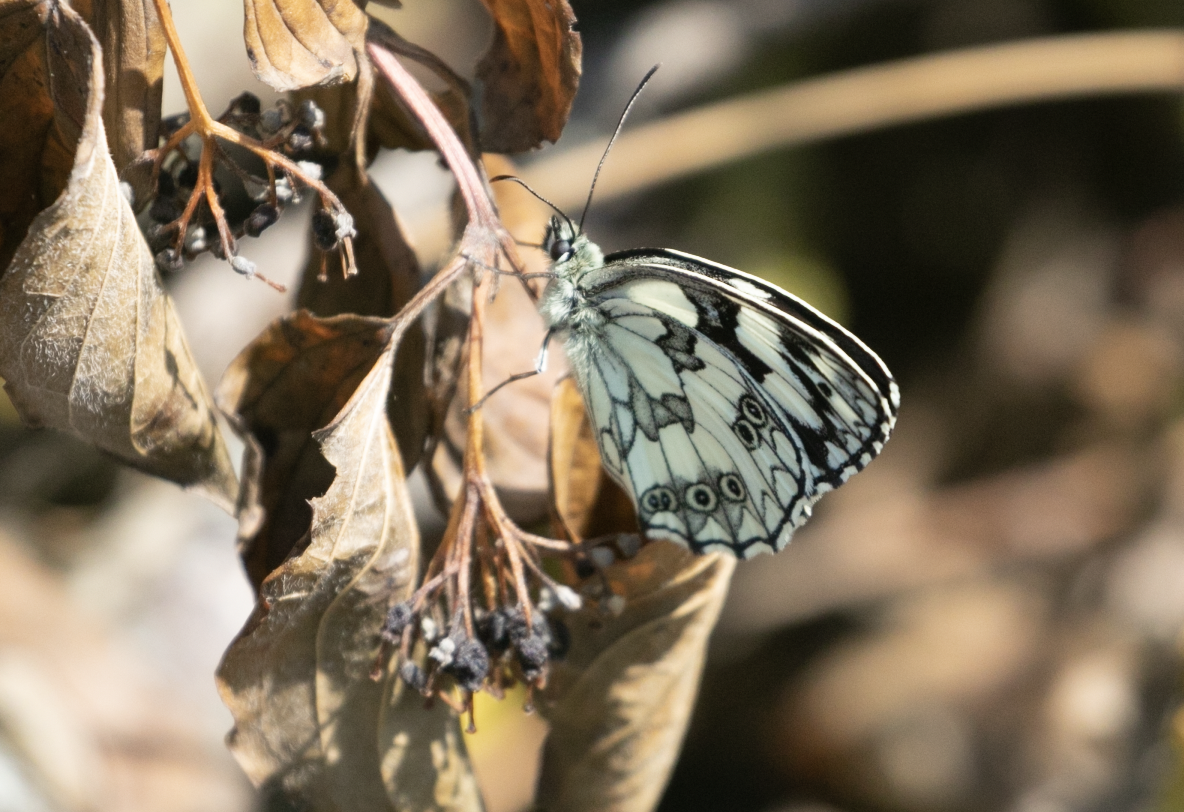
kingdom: Animalia
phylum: Arthropoda
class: Insecta
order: Lepidoptera
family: Nymphalidae
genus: Melanargia
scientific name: Melanargia galathea
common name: Marbled white
